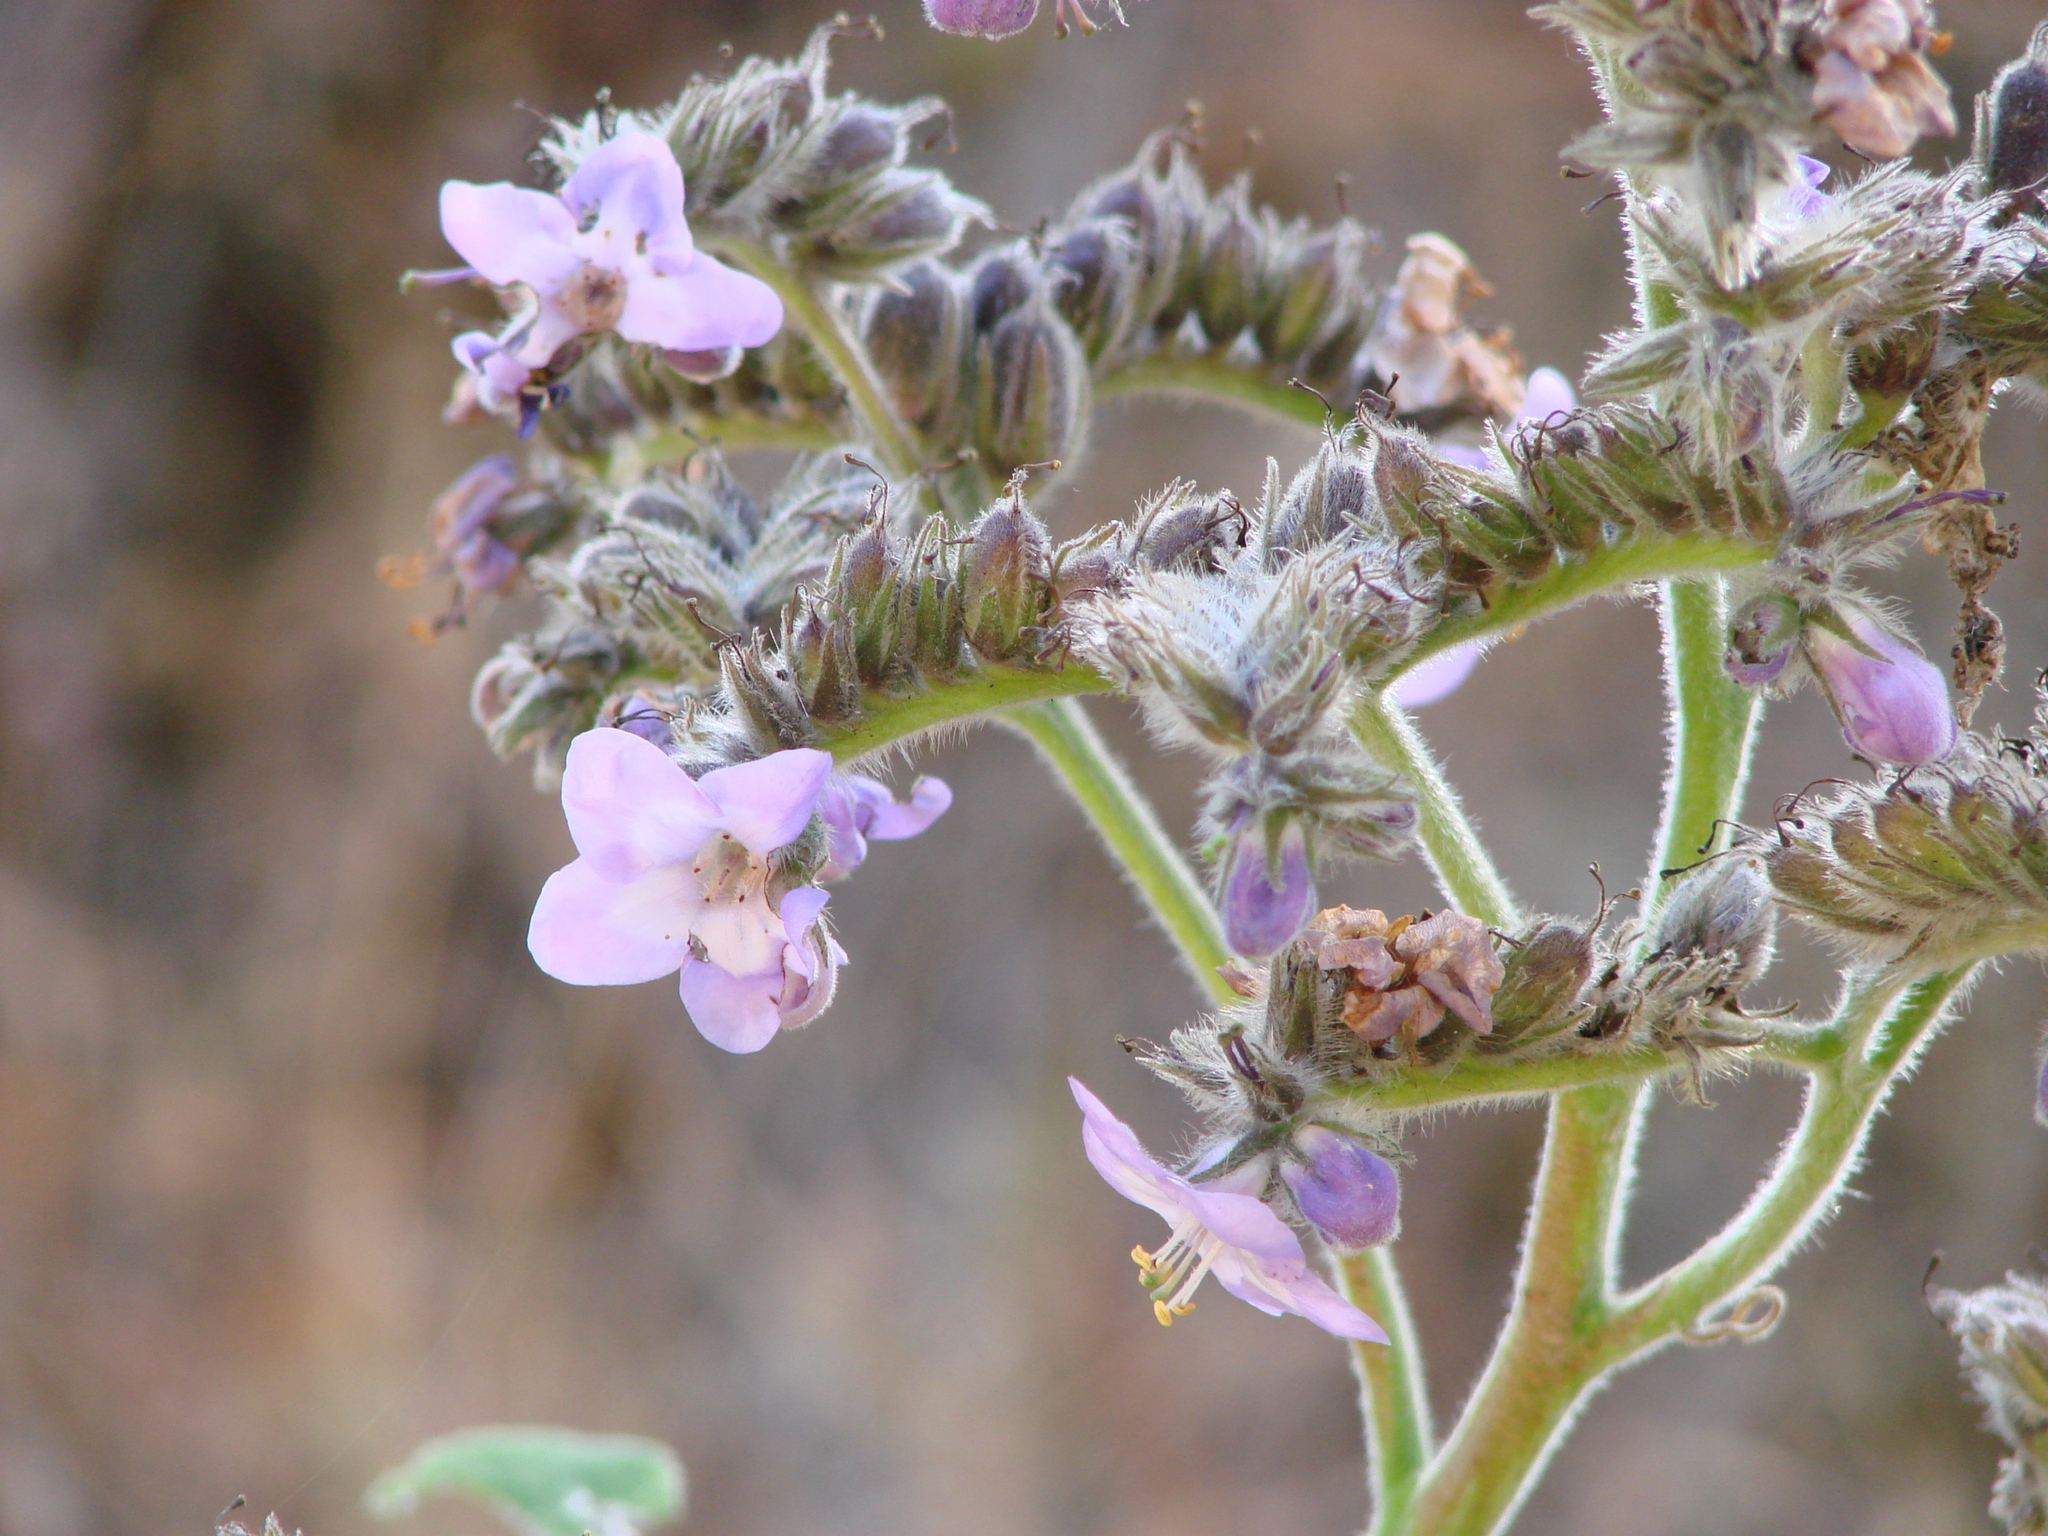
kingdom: Plantae
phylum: Tracheophyta
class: Magnoliopsida
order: Boraginales
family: Namaceae
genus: Wigandia
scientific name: Wigandia urens
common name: Caracus wigandia
